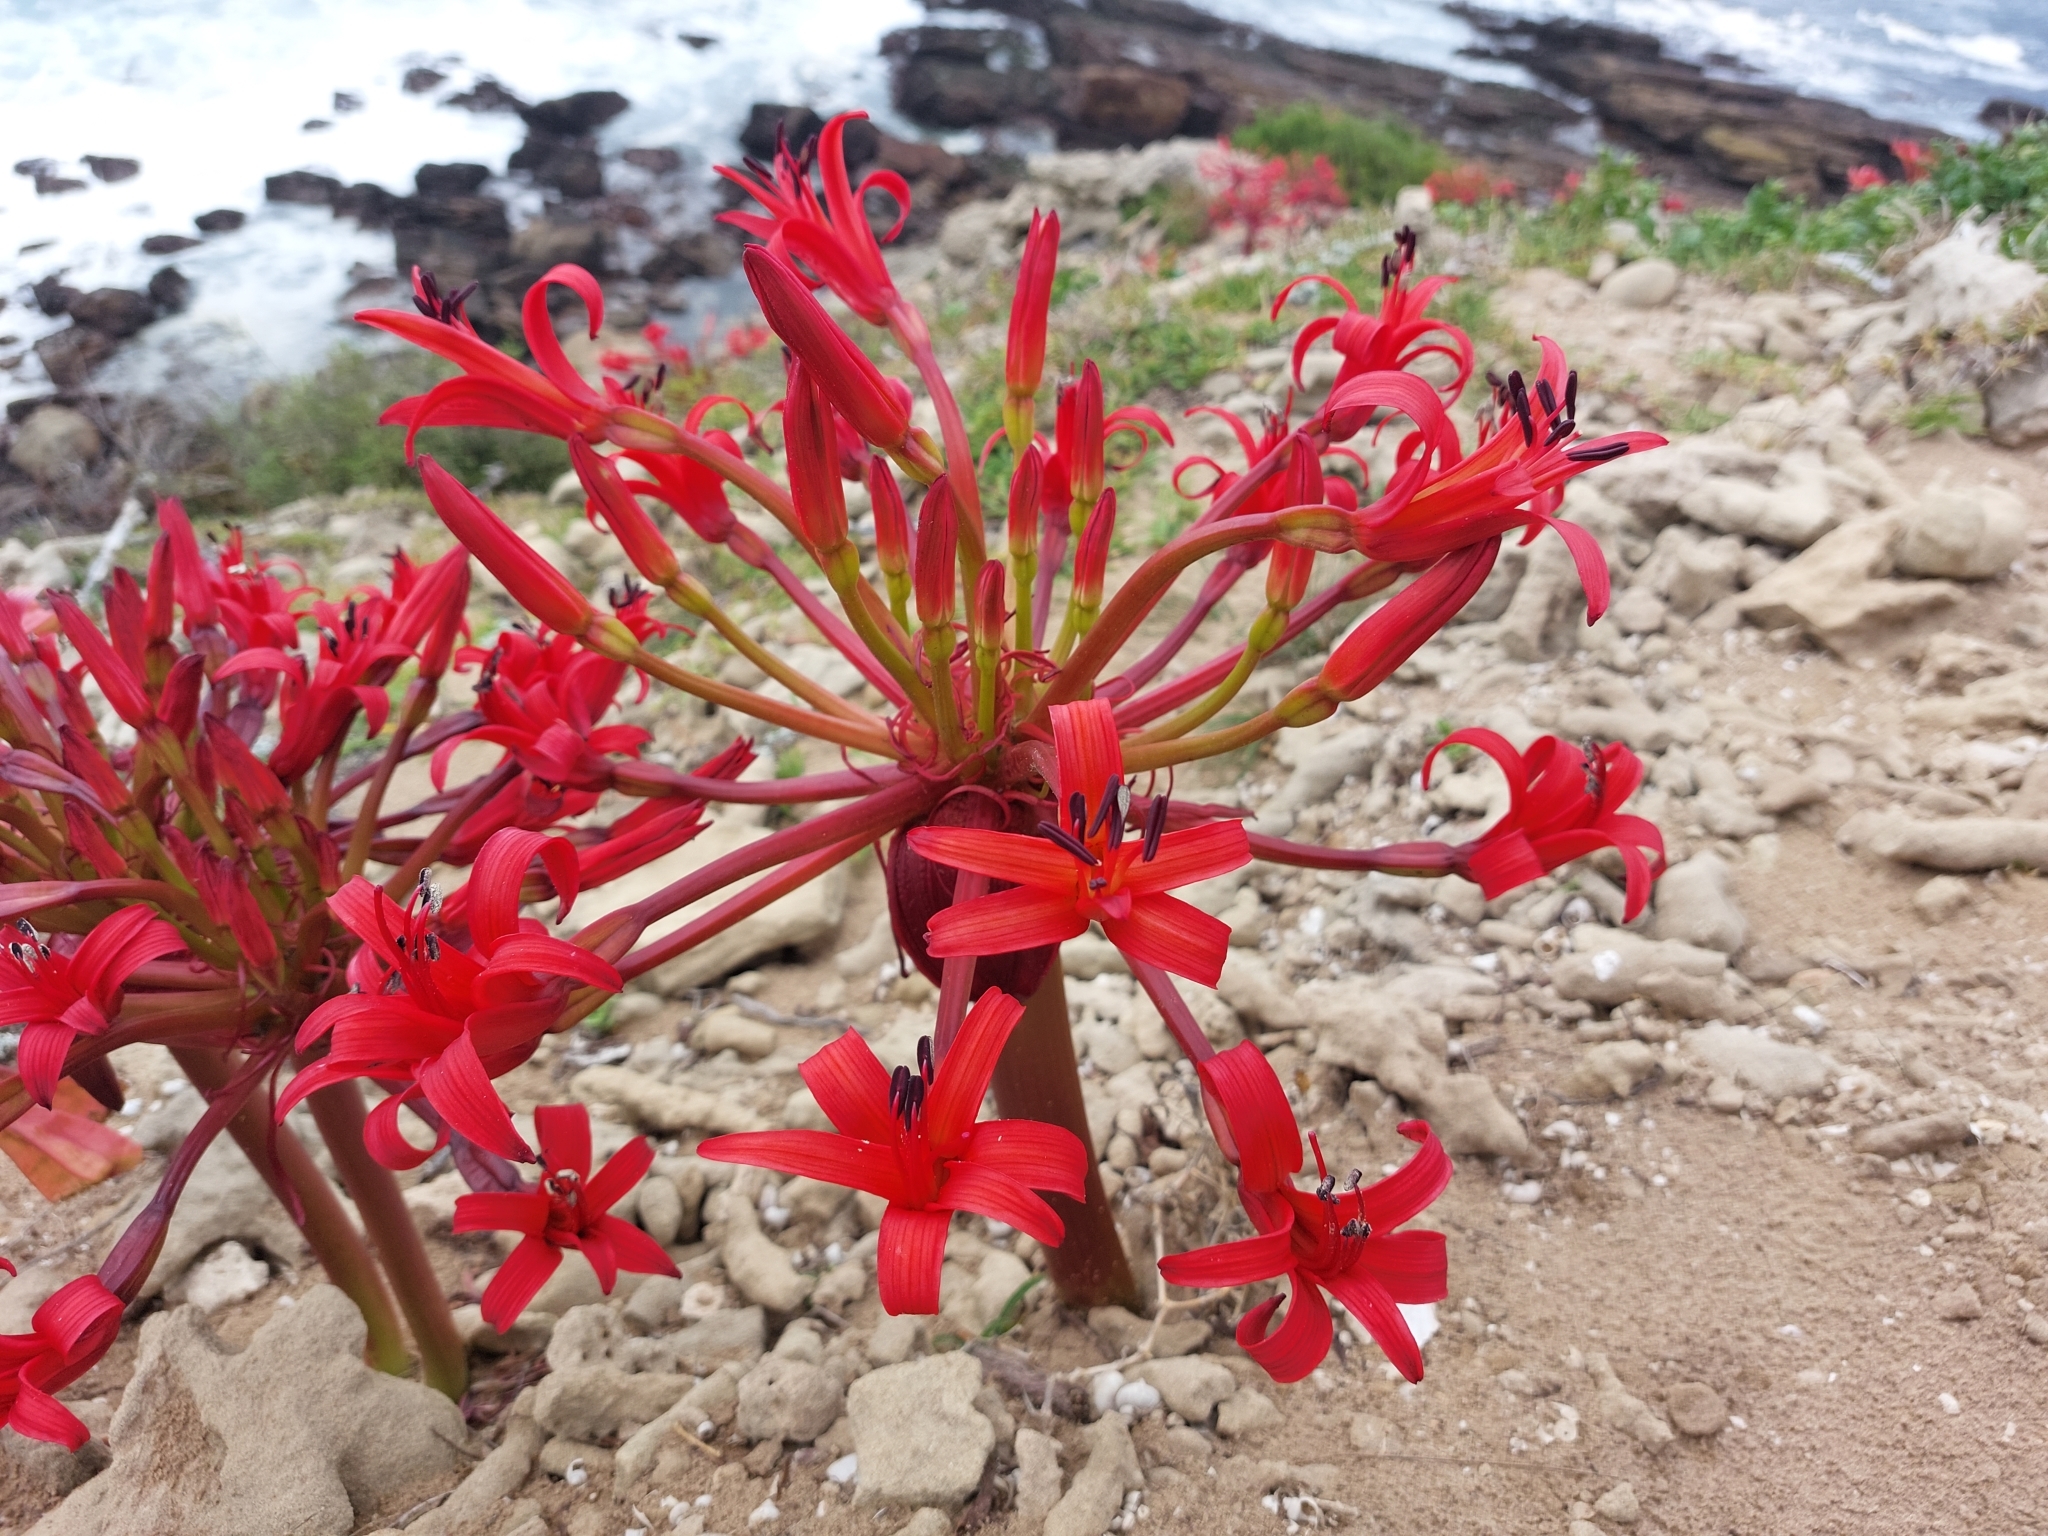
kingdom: Plantae
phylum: Tracheophyta
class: Liliopsida
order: Asparagales
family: Amaryllidaceae
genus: Brunsvigia
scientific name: Brunsvigia orientalis
